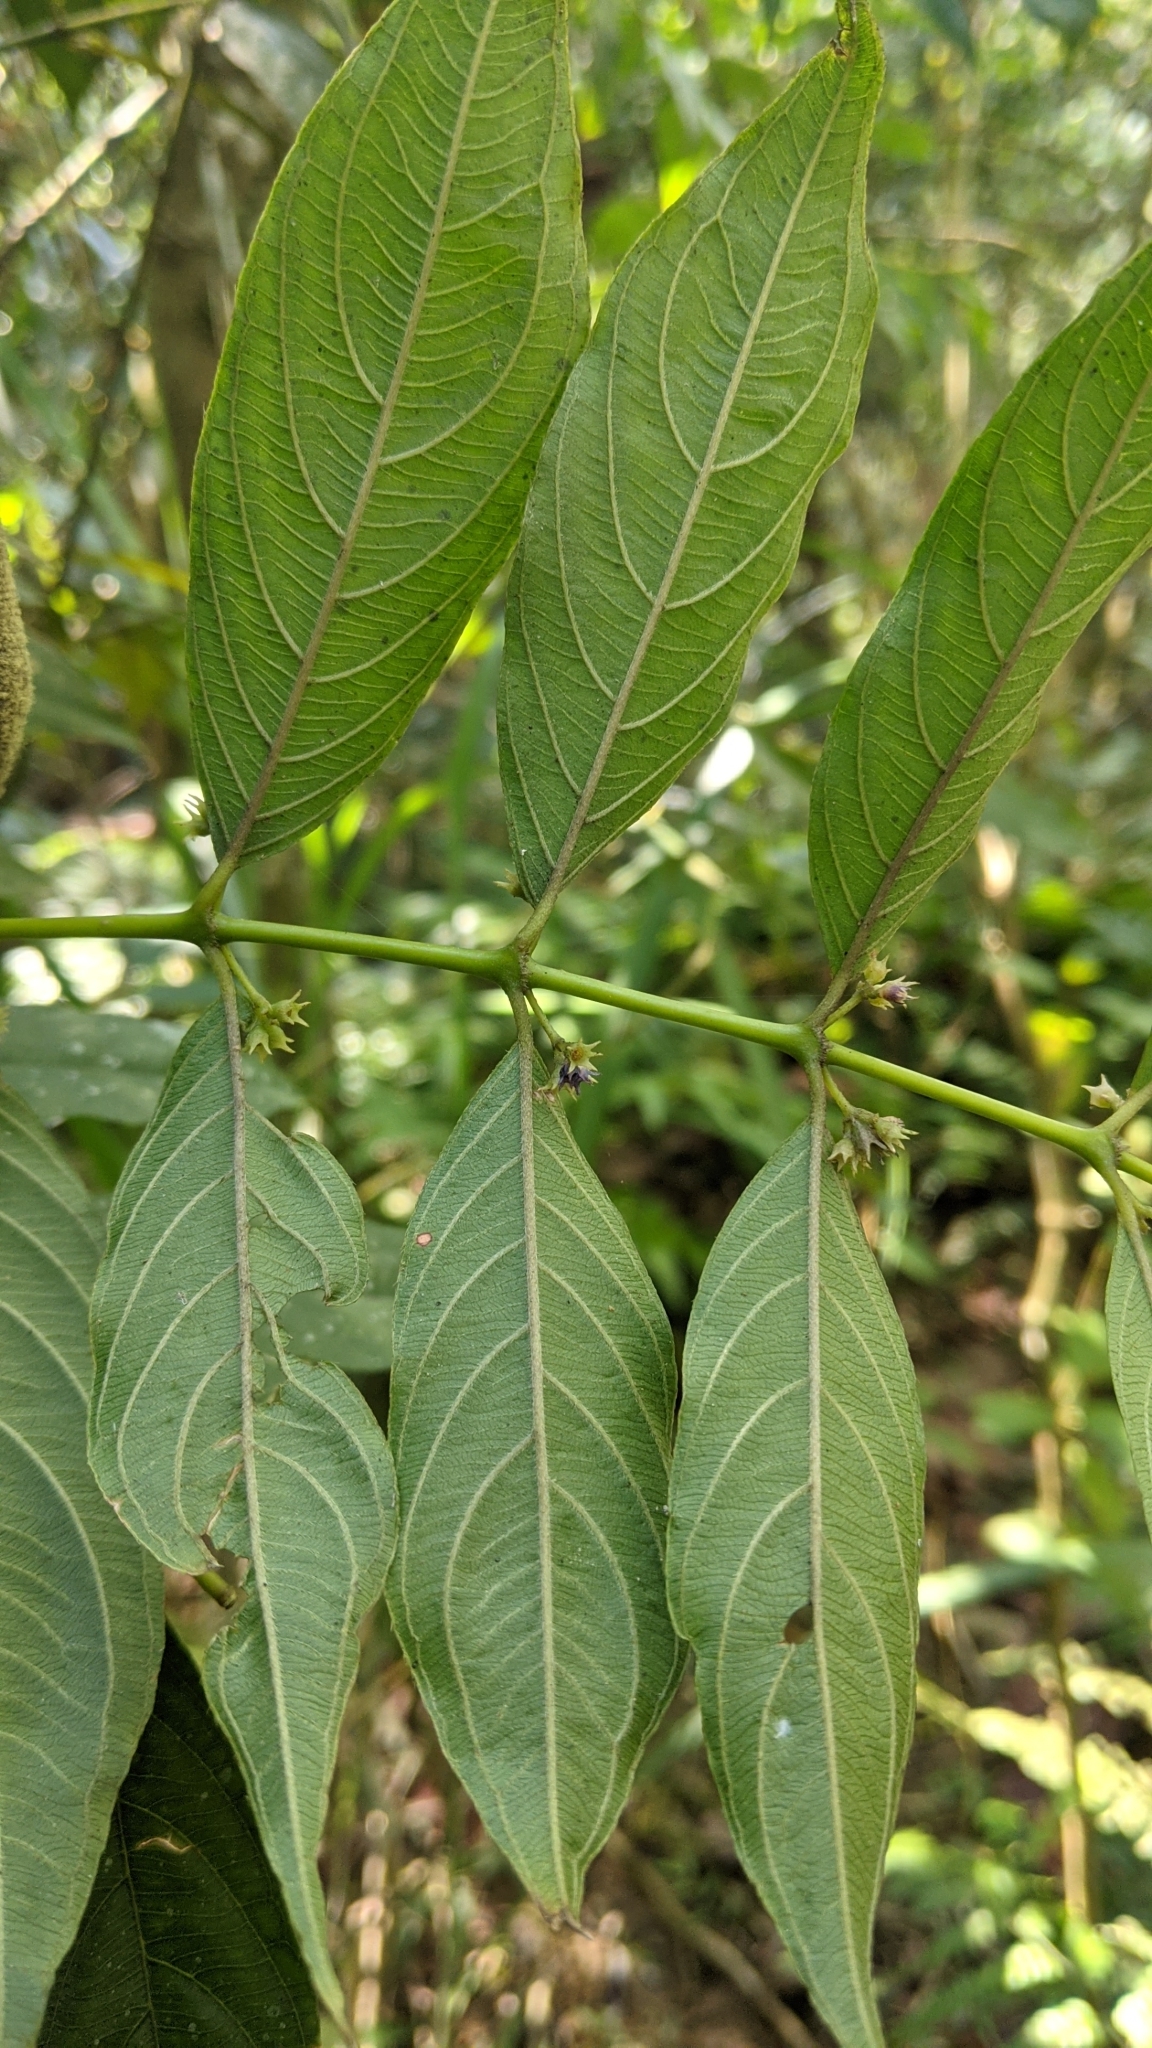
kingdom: Plantae
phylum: Tracheophyta
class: Magnoliopsida
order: Gentianales
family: Rubiaceae
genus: Lasianthus
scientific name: Lasianthus micranthus
